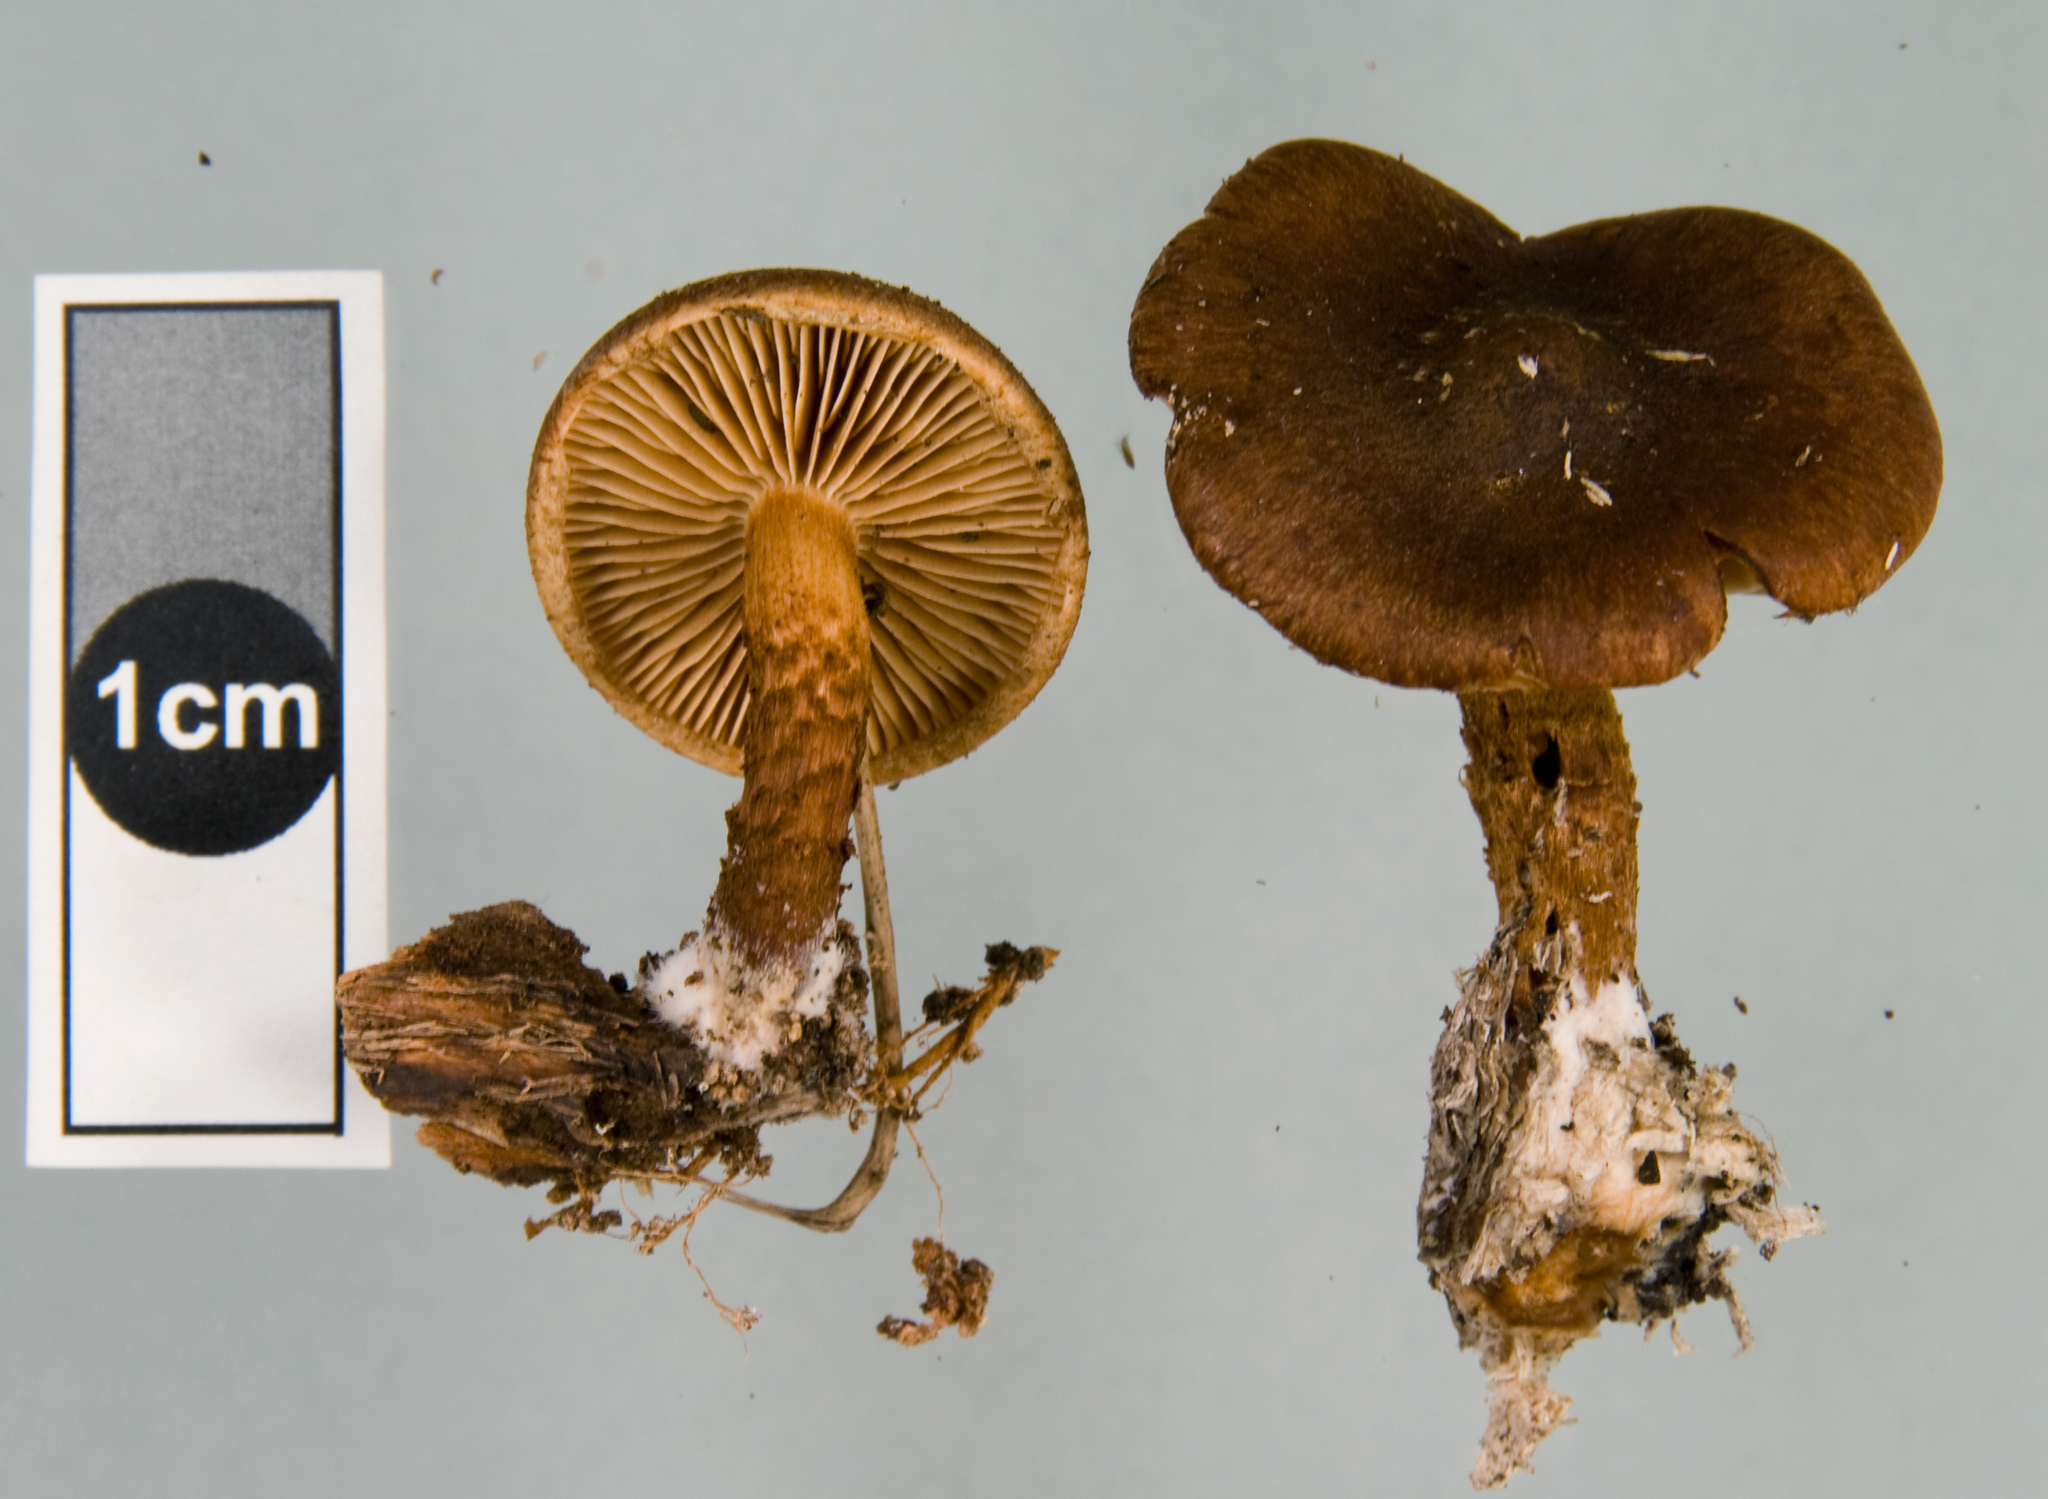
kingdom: Fungi
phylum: Basidiomycota
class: Agaricomycetes
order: Agaricales
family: Strophariaceae
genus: Pholiota
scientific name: Pholiota multicingulata
